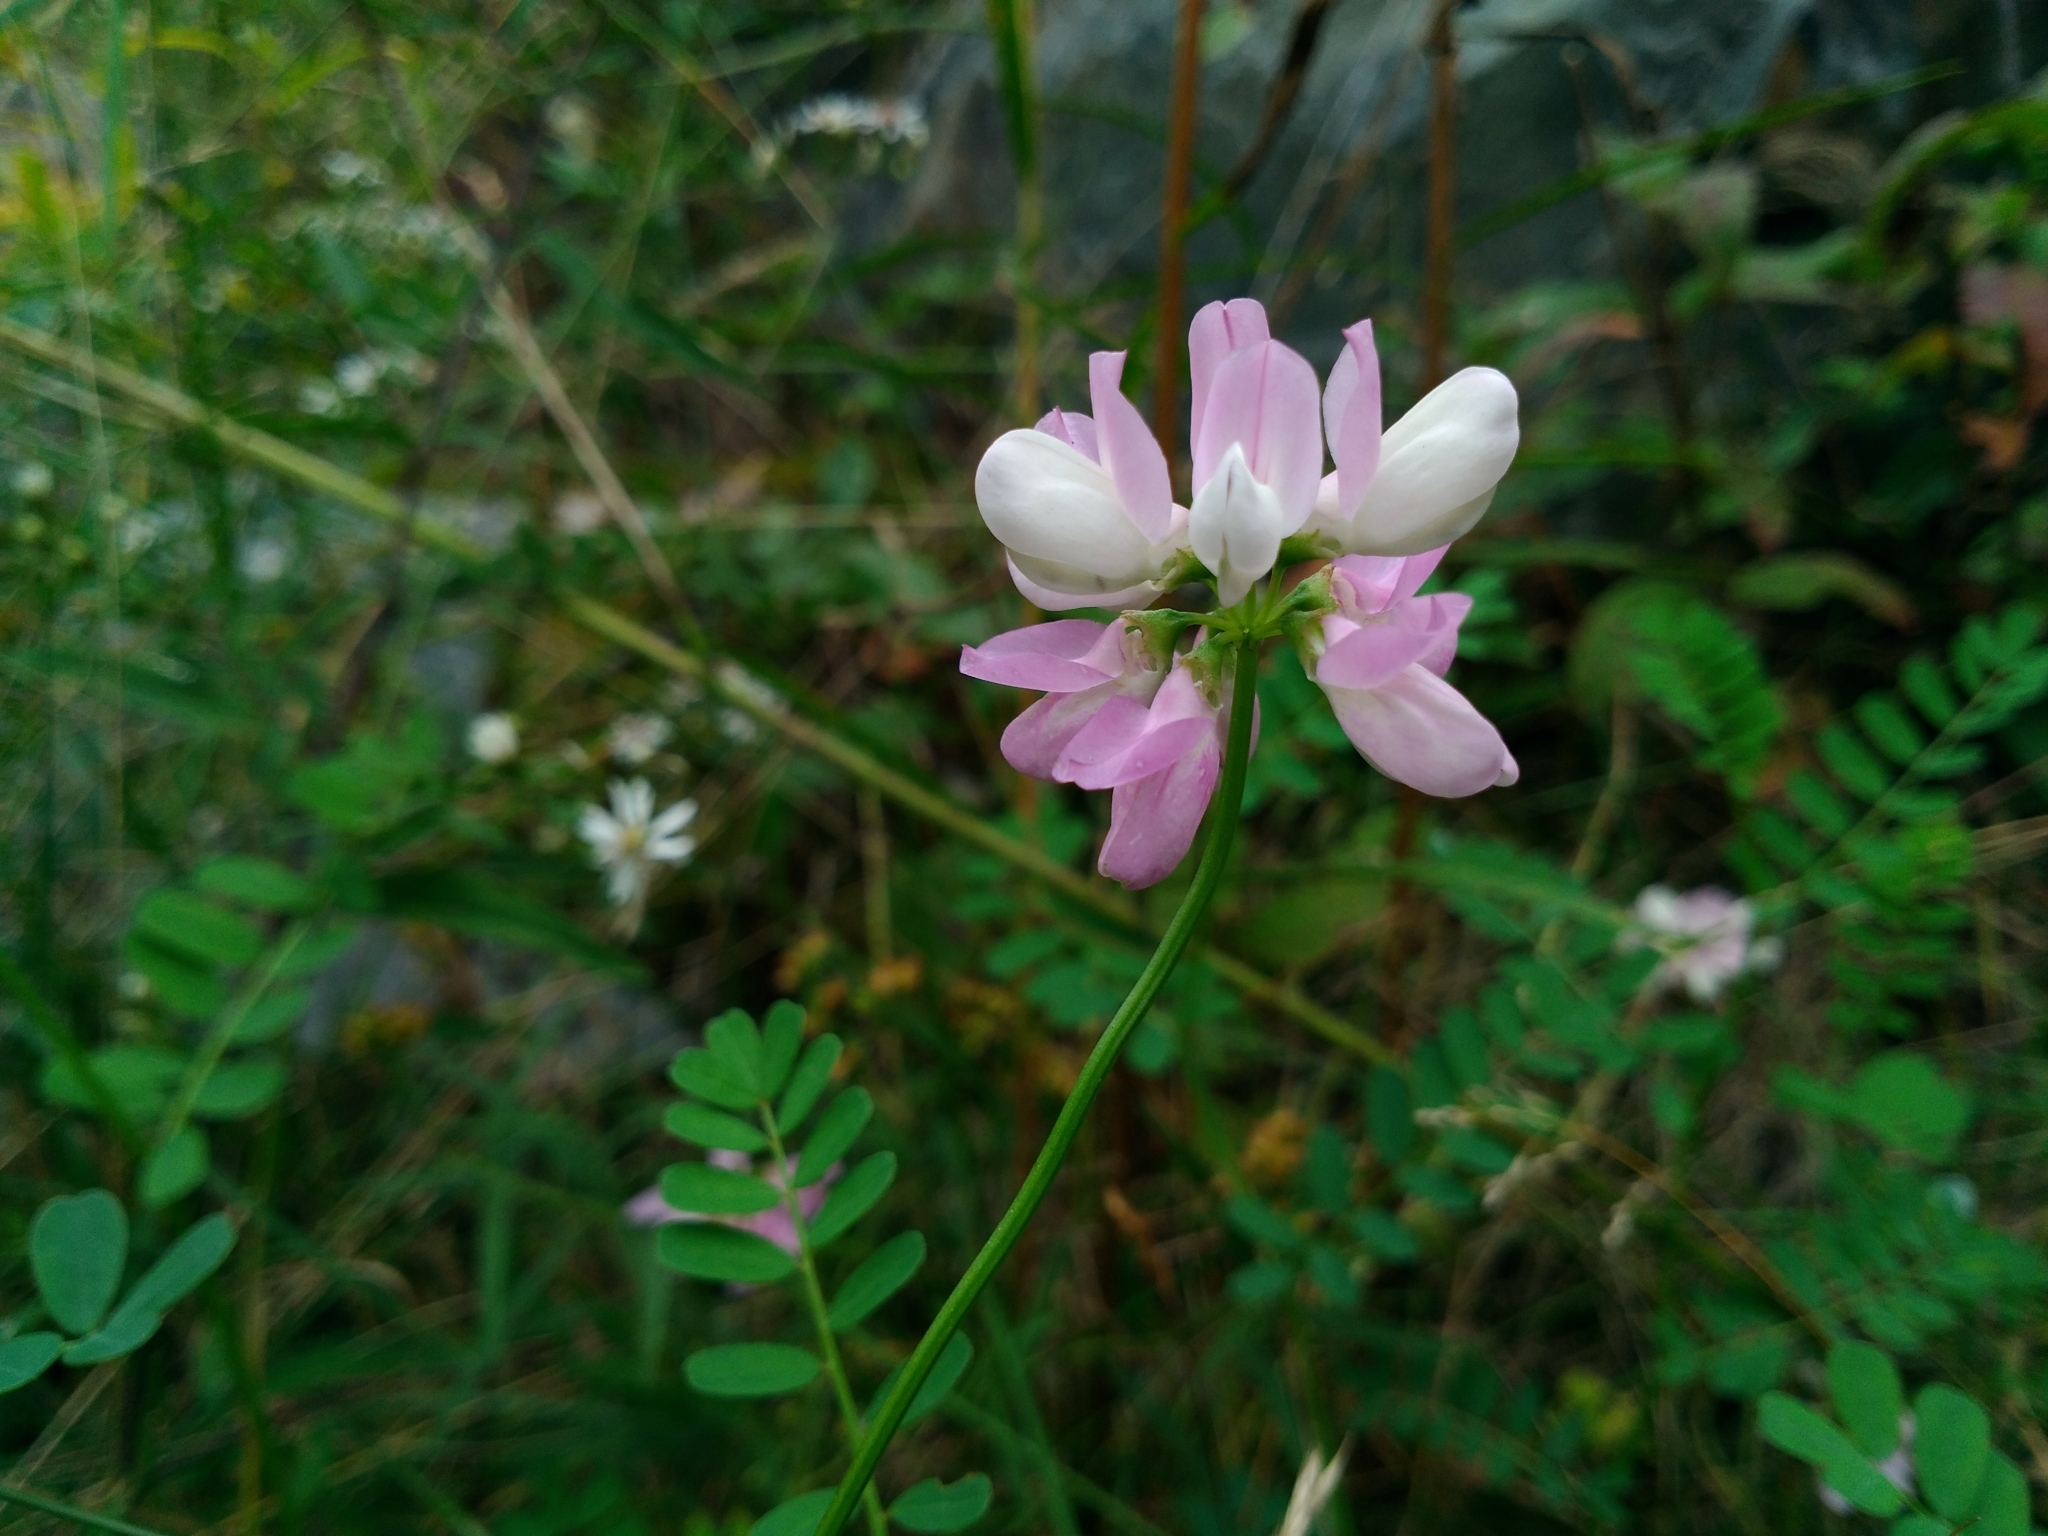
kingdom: Plantae
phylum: Tracheophyta
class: Magnoliopsida
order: Fabales
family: Fabaceae
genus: Coronilla
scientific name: Coronilla varia
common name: Crownvetch
